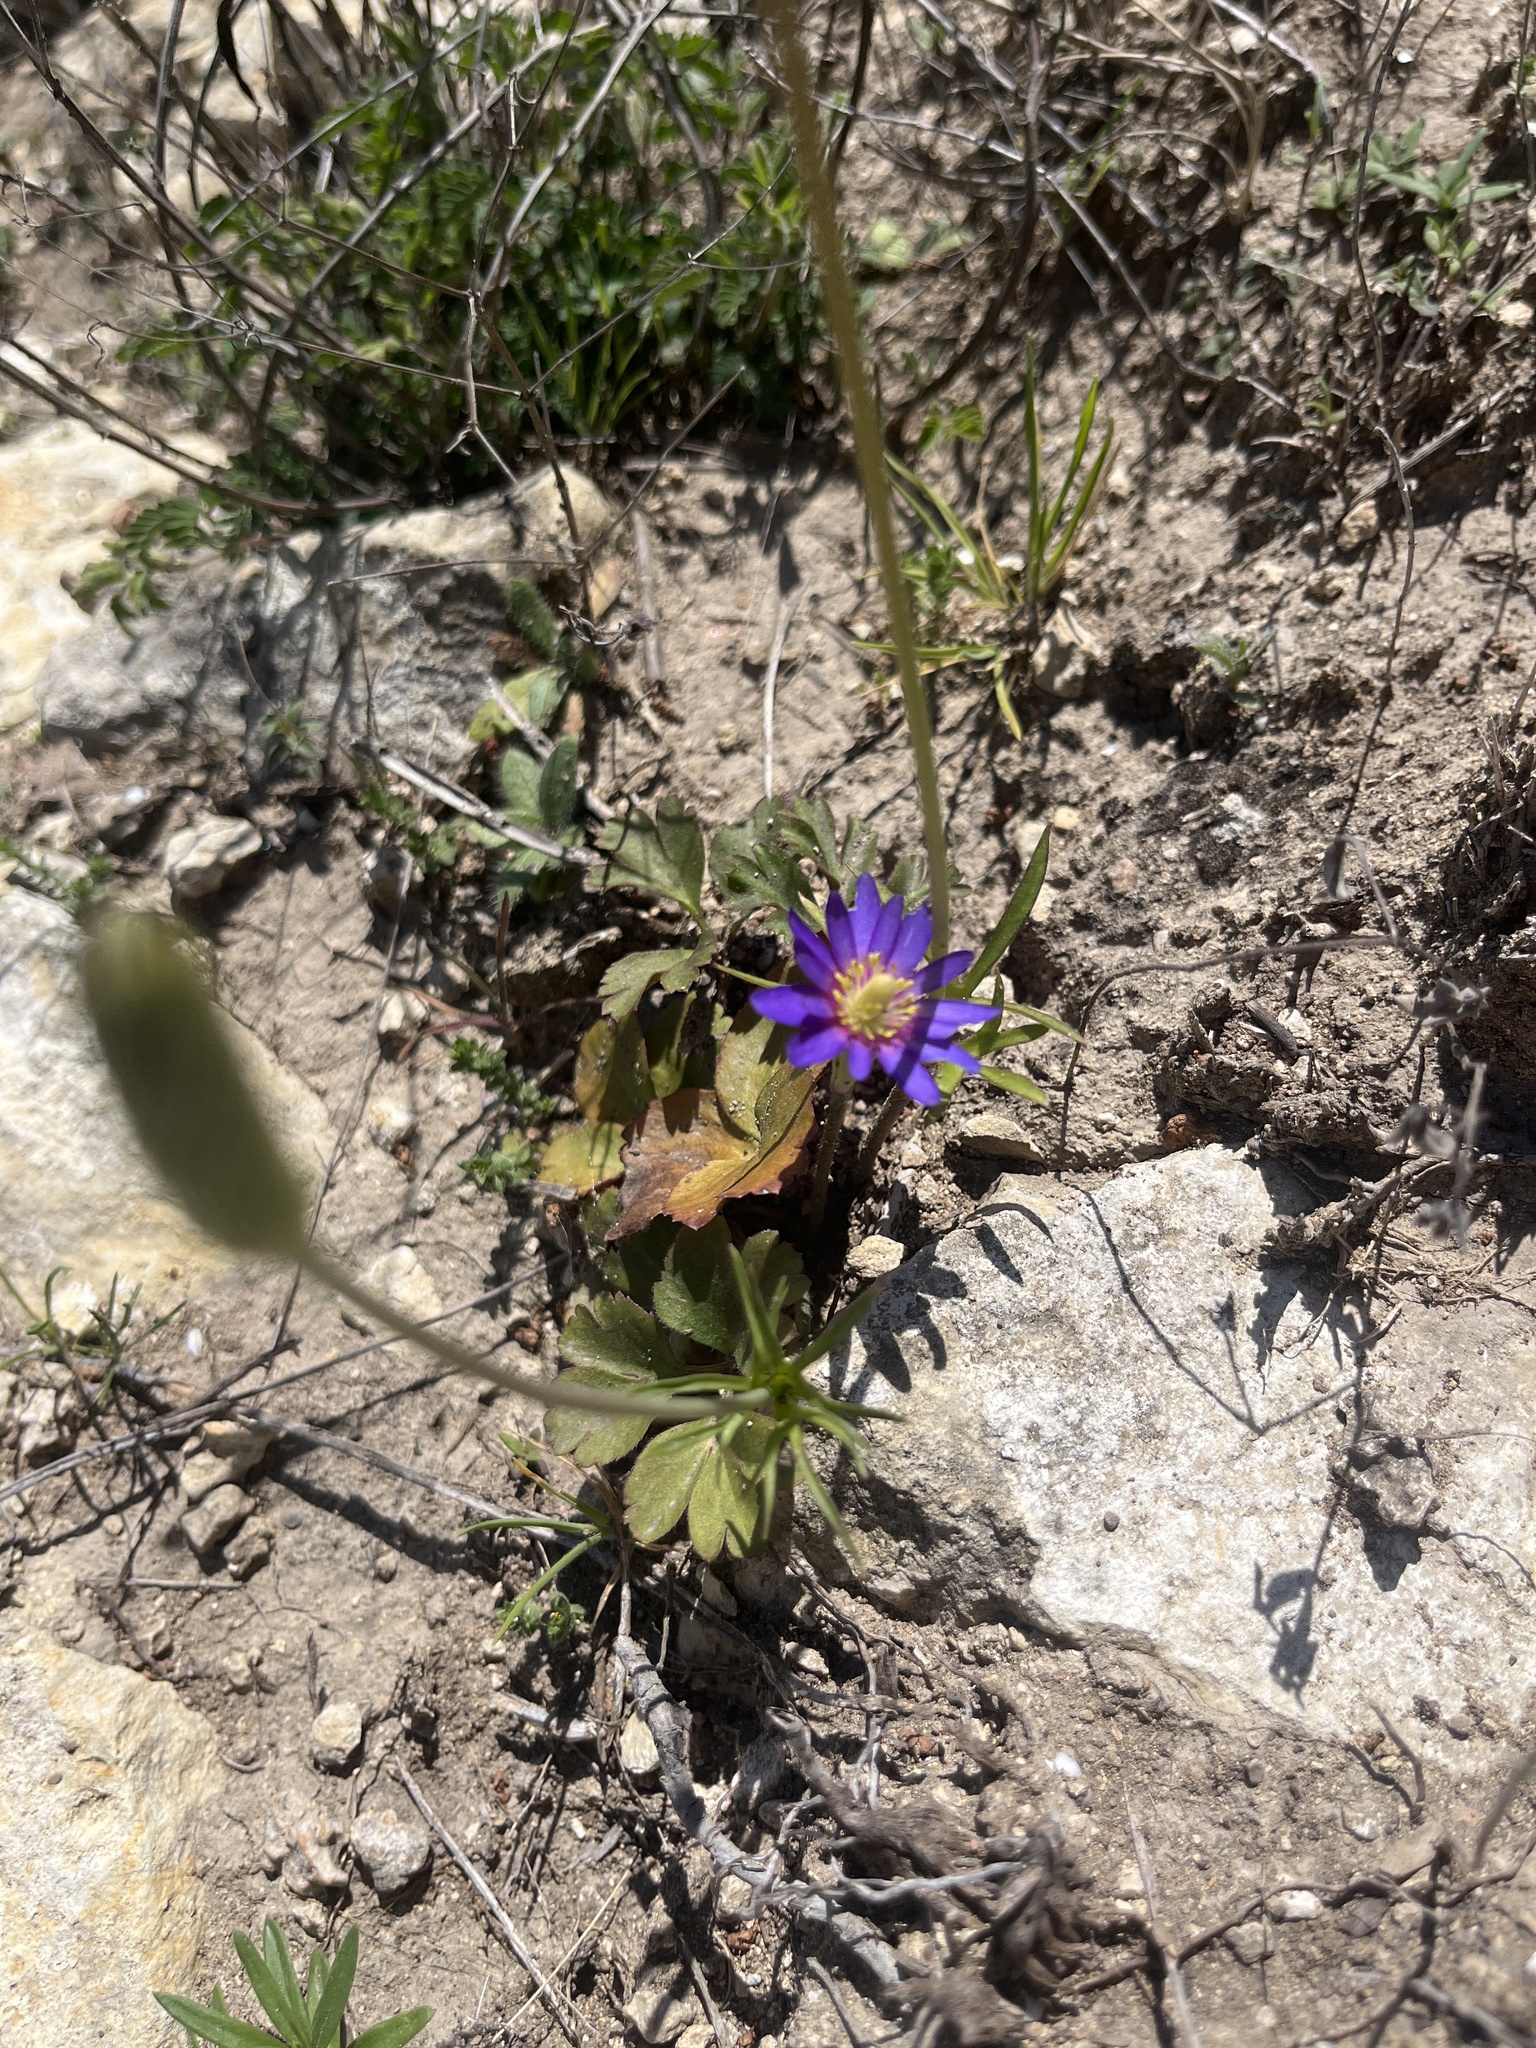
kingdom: Plantae
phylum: Tracheophyta
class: Magnoliopsida
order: Ranunculales
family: Ranunculaceae
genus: Anemone
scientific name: Anemone berlandieri
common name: Ten-petal anemone
